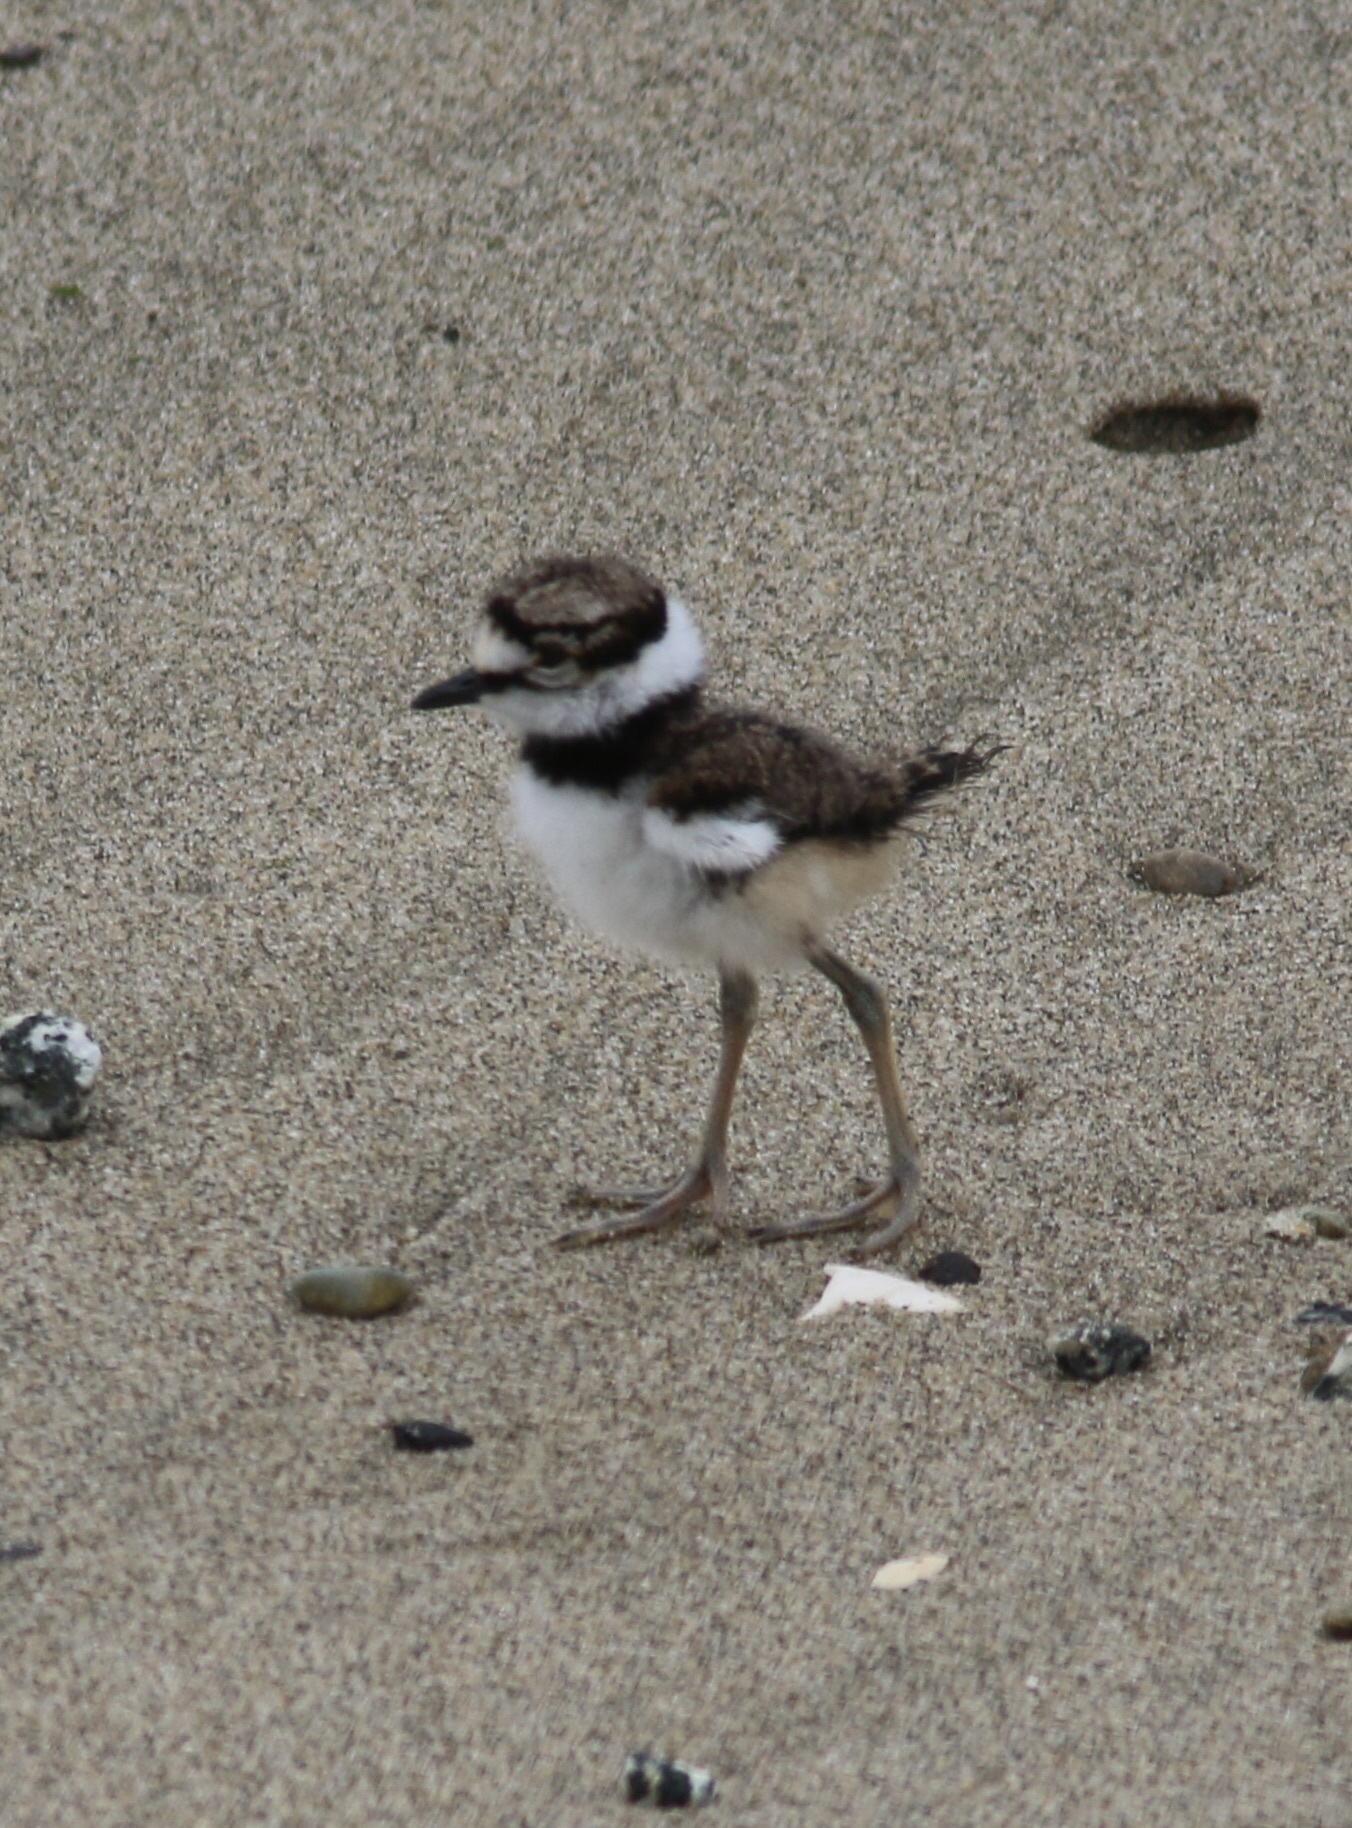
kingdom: Animalia
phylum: Chordata
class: Aves
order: Charadriiformes
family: Charadriidae
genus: Charadrius
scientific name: Charadrius vociferus
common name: Killdeer
